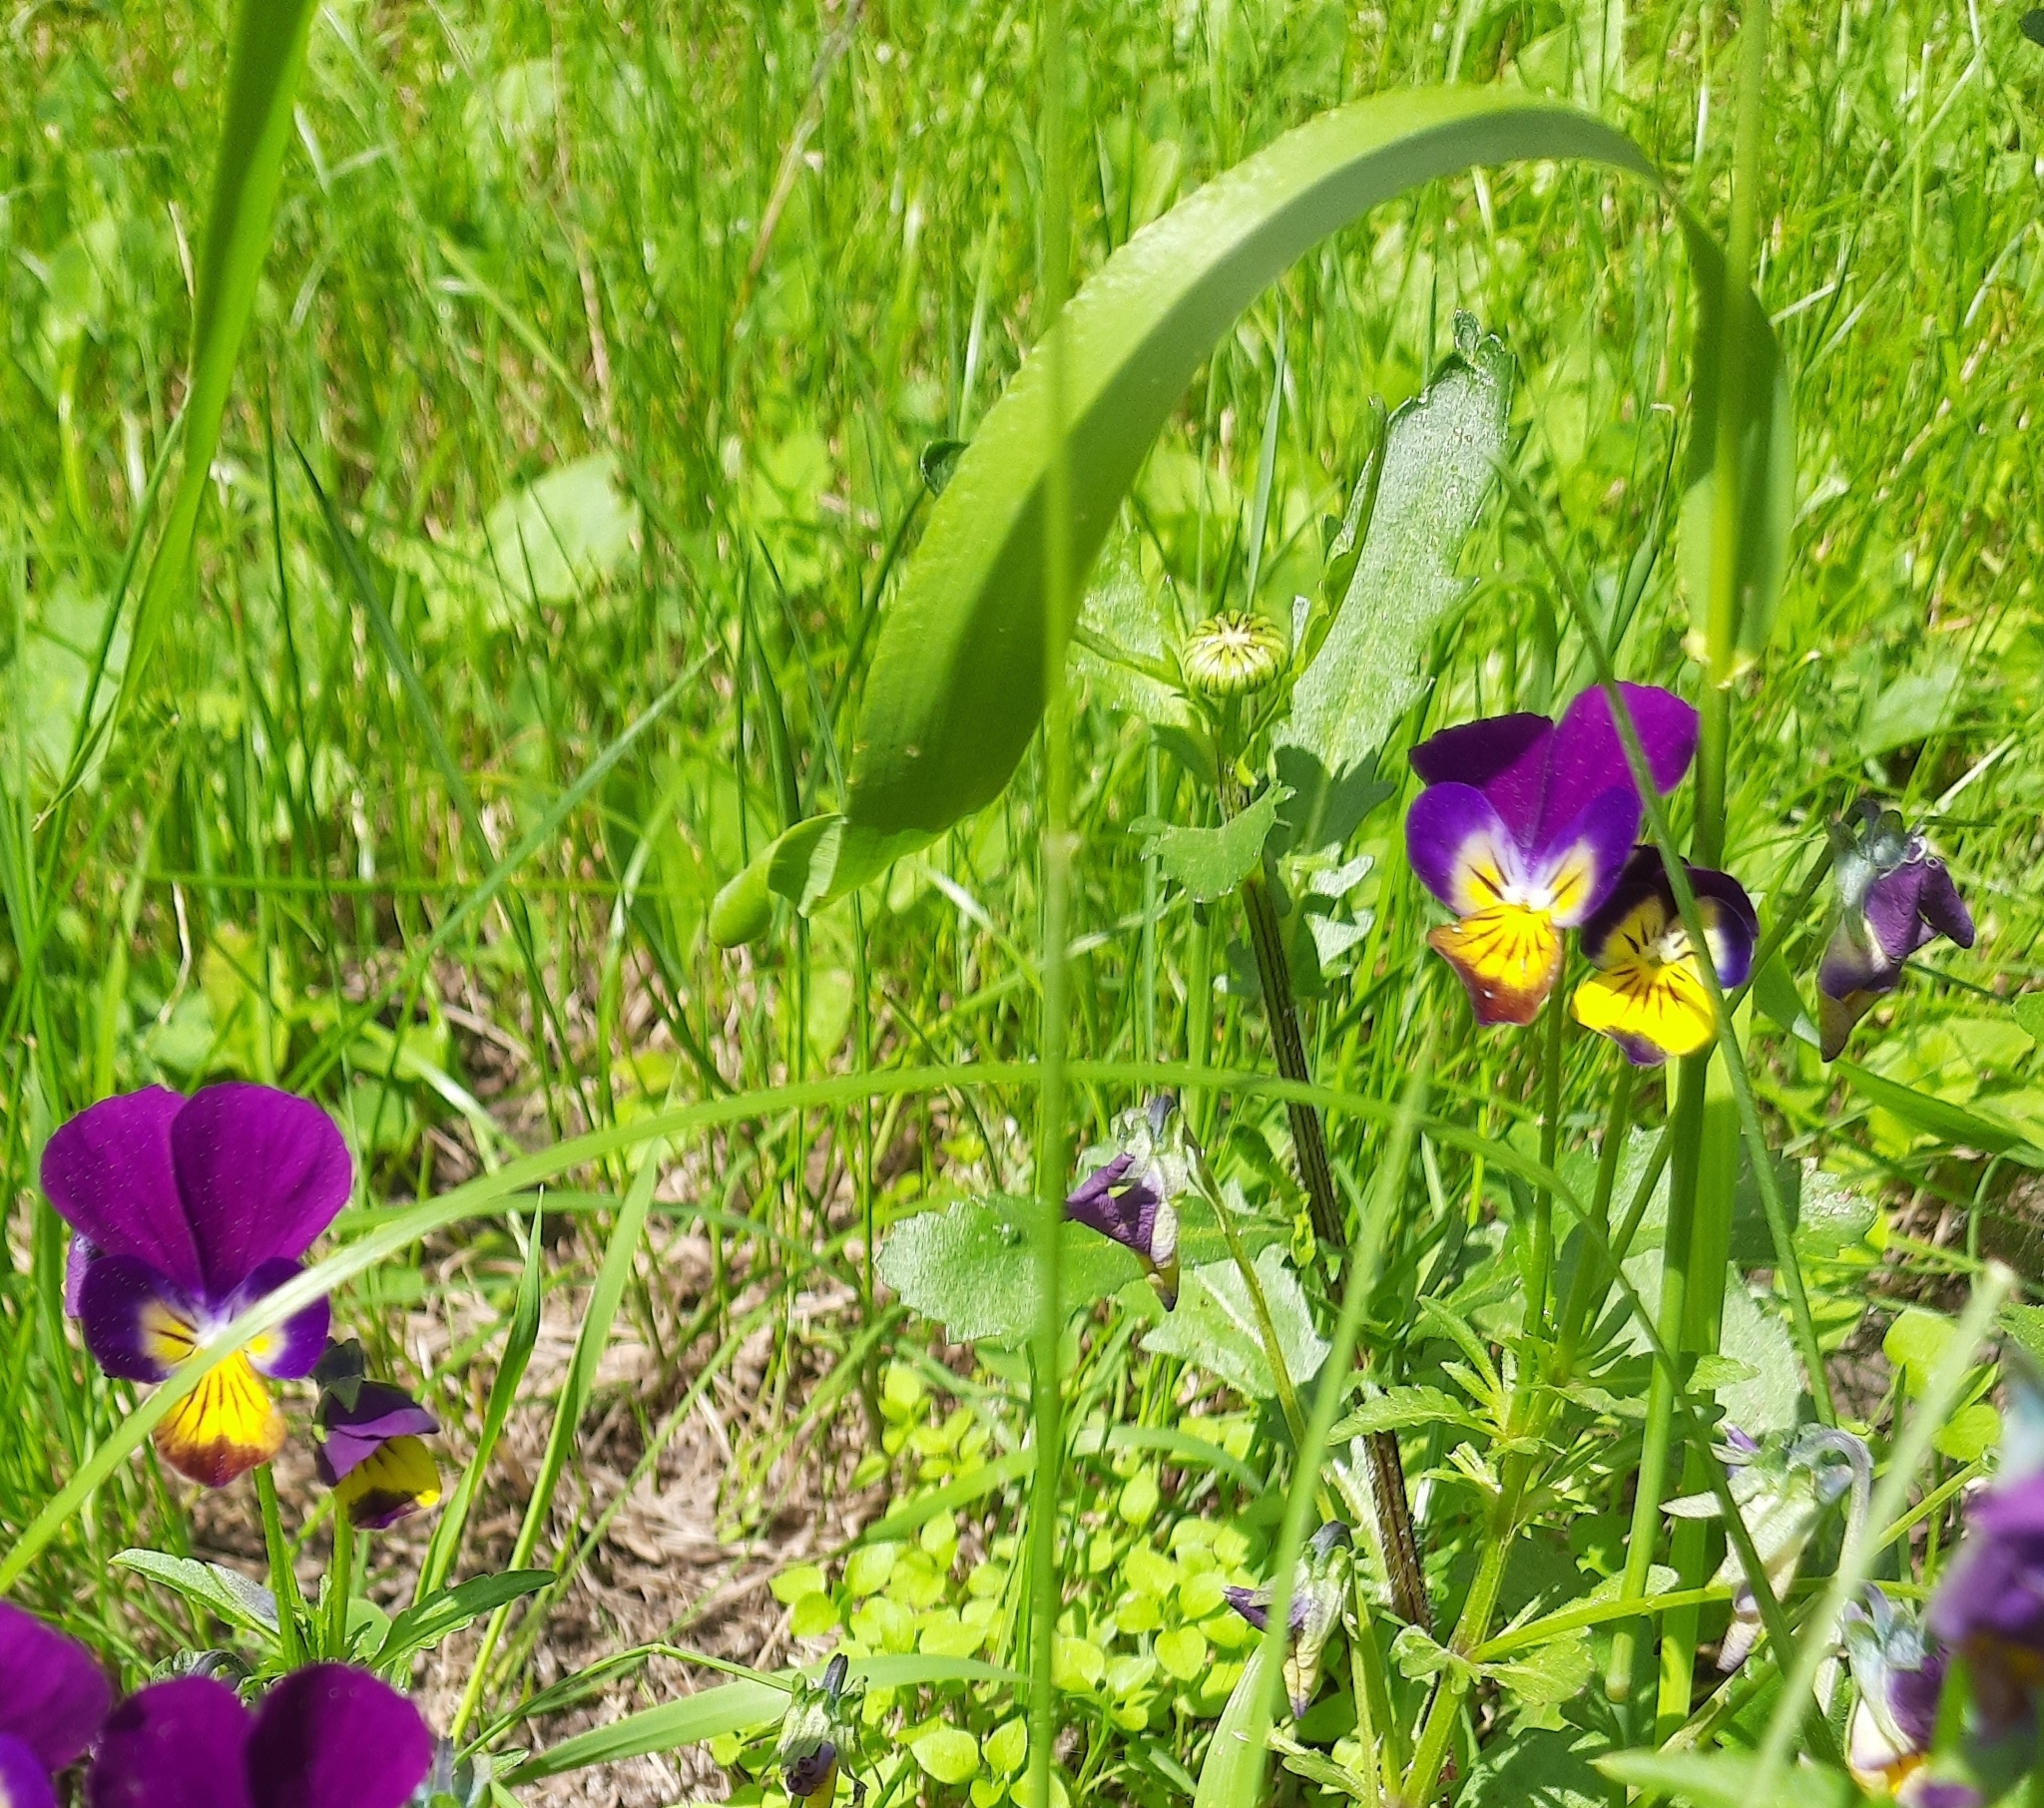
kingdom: Plantae
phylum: Tracheophyta
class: Magnoliopsida
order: Malpighiales
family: Violaceae
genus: Viola
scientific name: Viola wittrockiana
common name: Garden pansy
